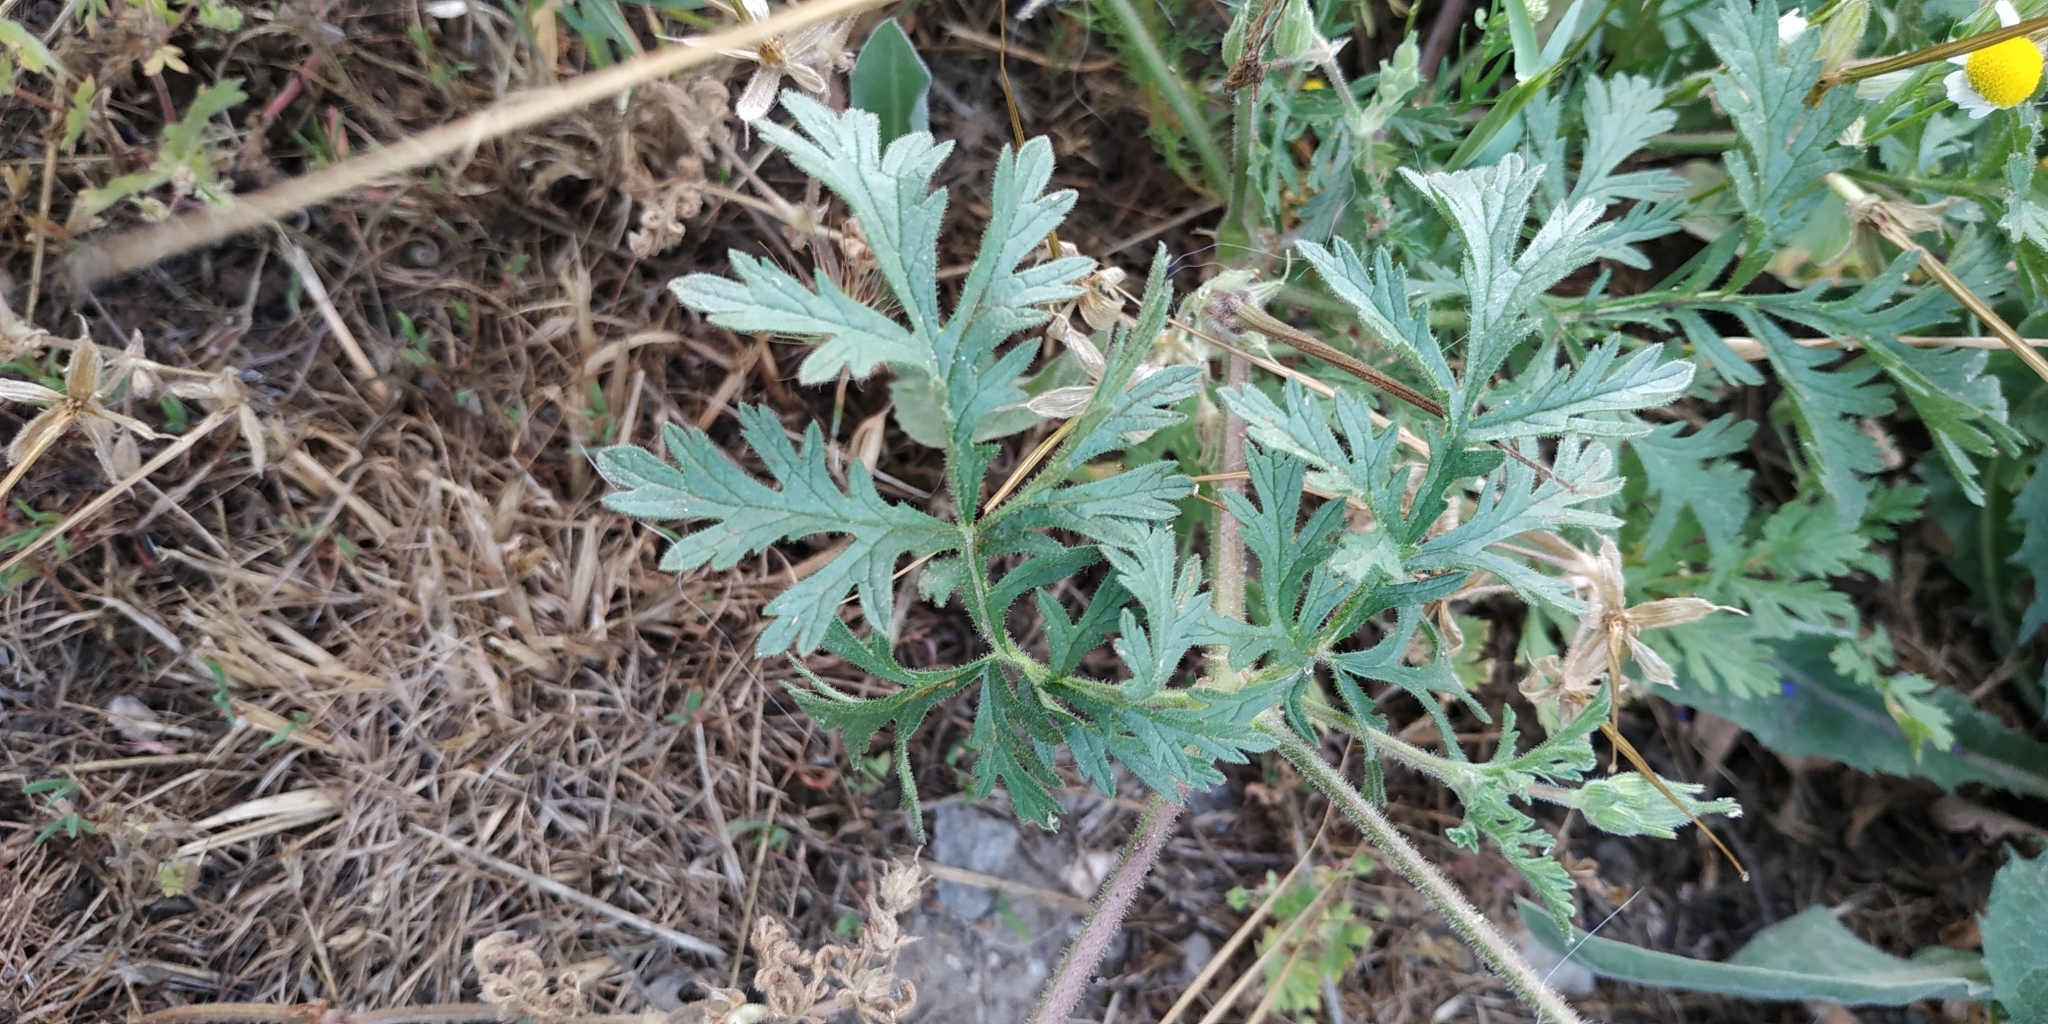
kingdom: Plantae
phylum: Tracheophyta
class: Magnoliopsida
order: Geraniales
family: Geraniaceae
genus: Erodium
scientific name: Erodium ciconium
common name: Common stork's bill
